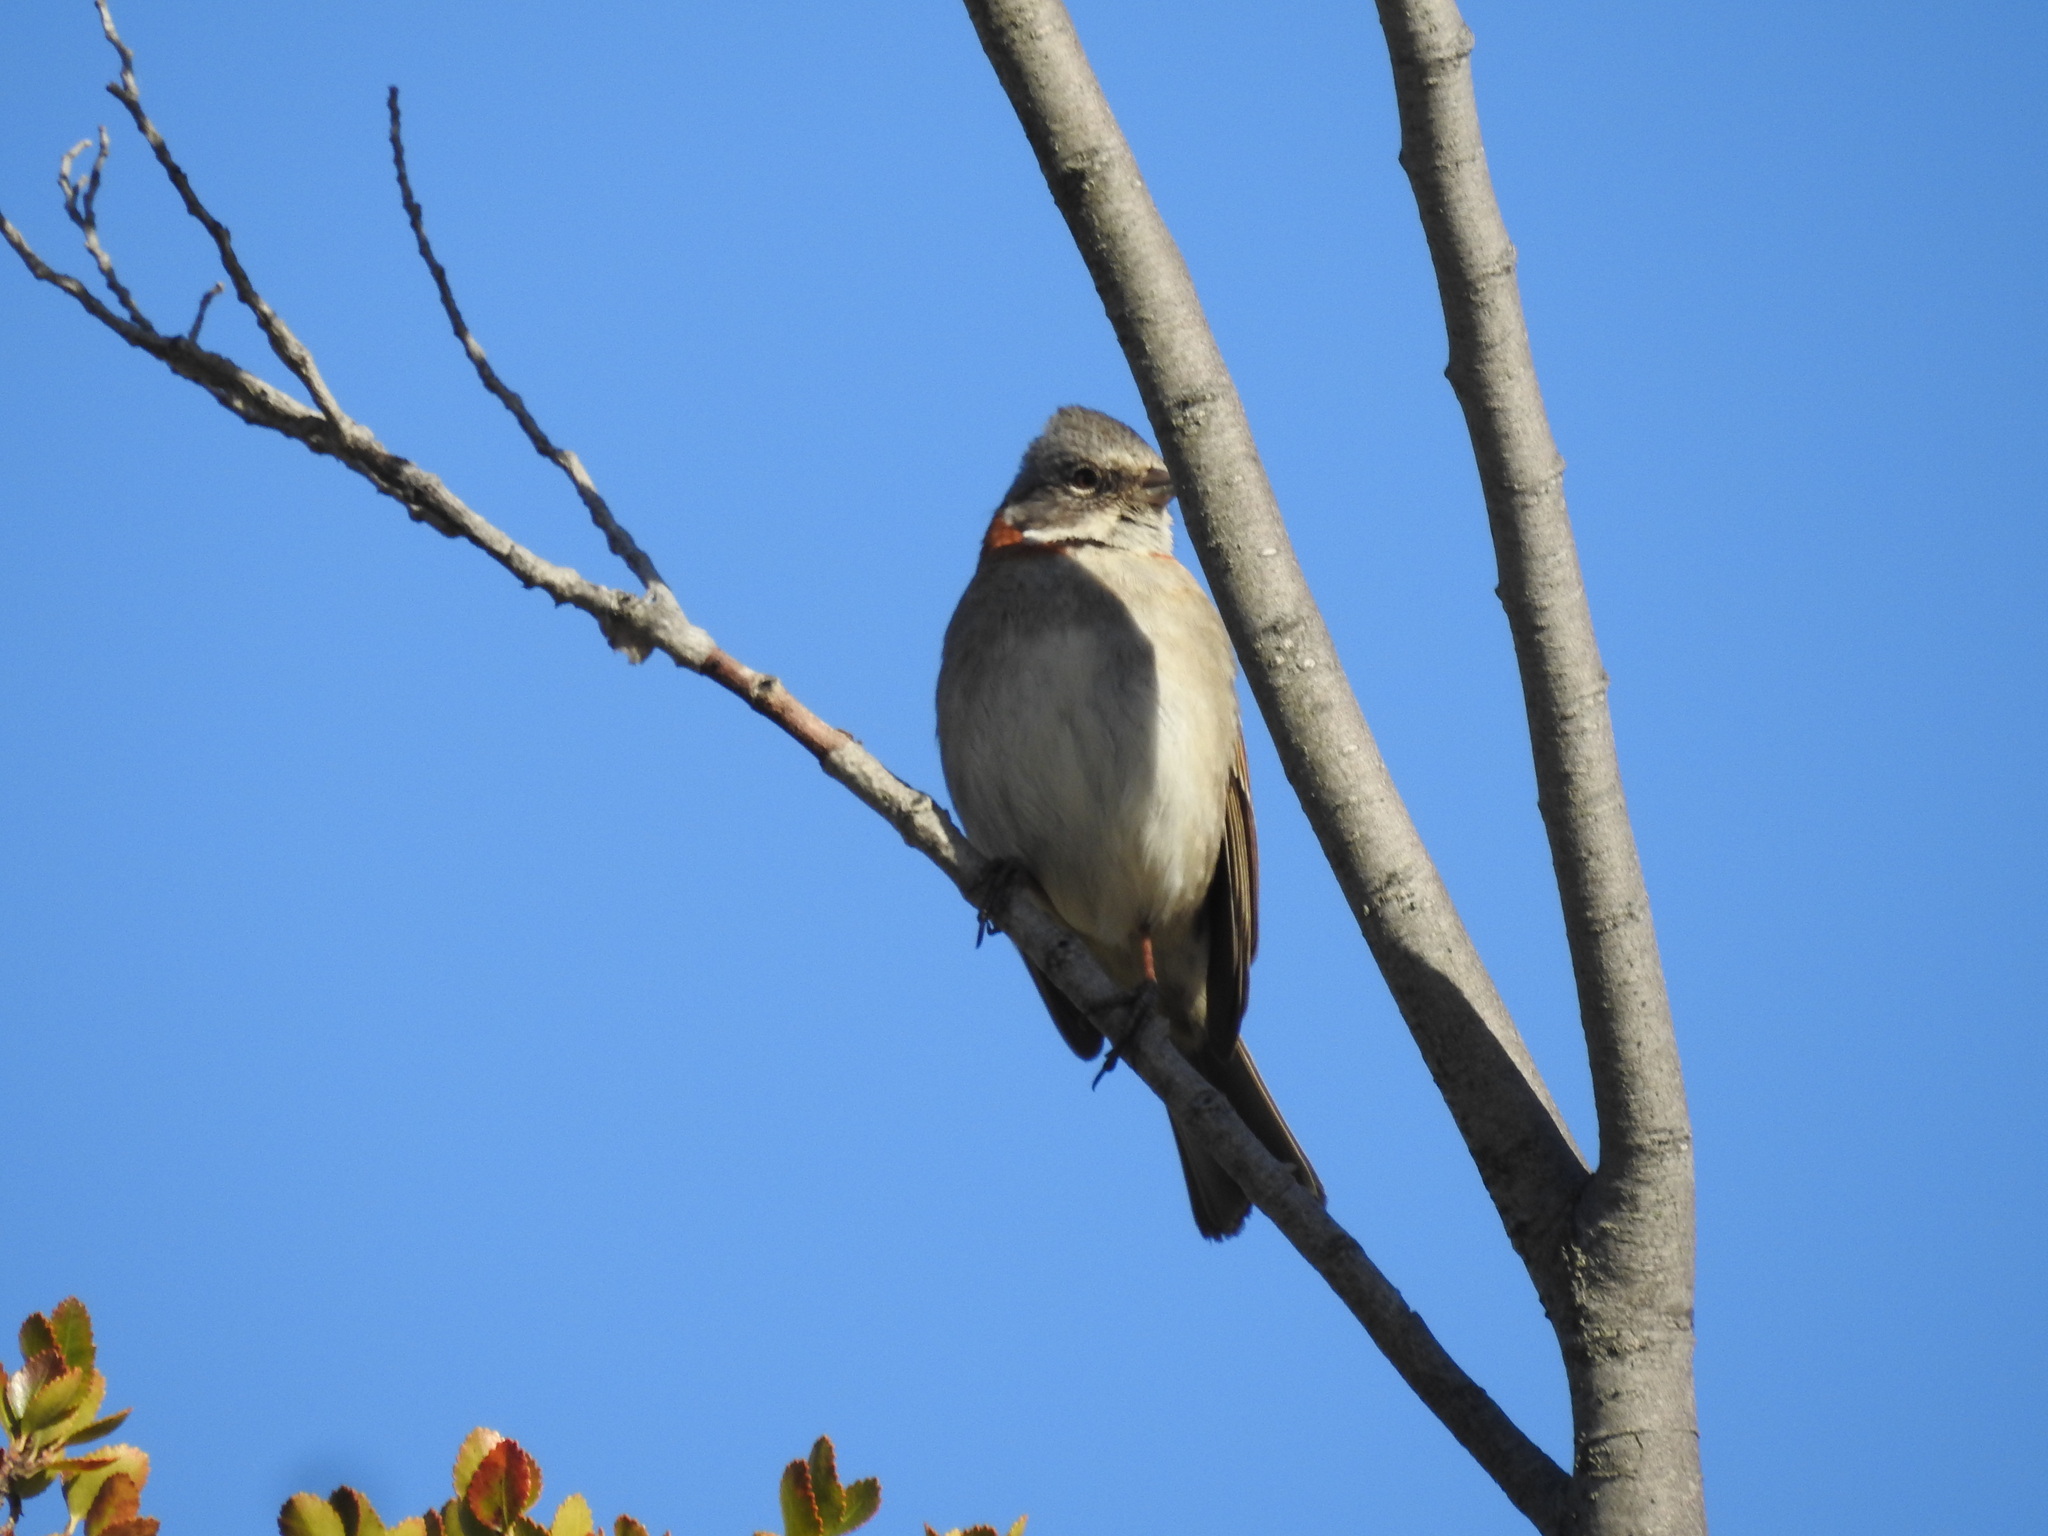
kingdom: Animalia
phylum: Chordata
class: Aves
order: Passeriformes
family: Passerellidae
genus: Zonotrichia
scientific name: Zonotrichia capensis
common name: Rufous-collared sparrow
